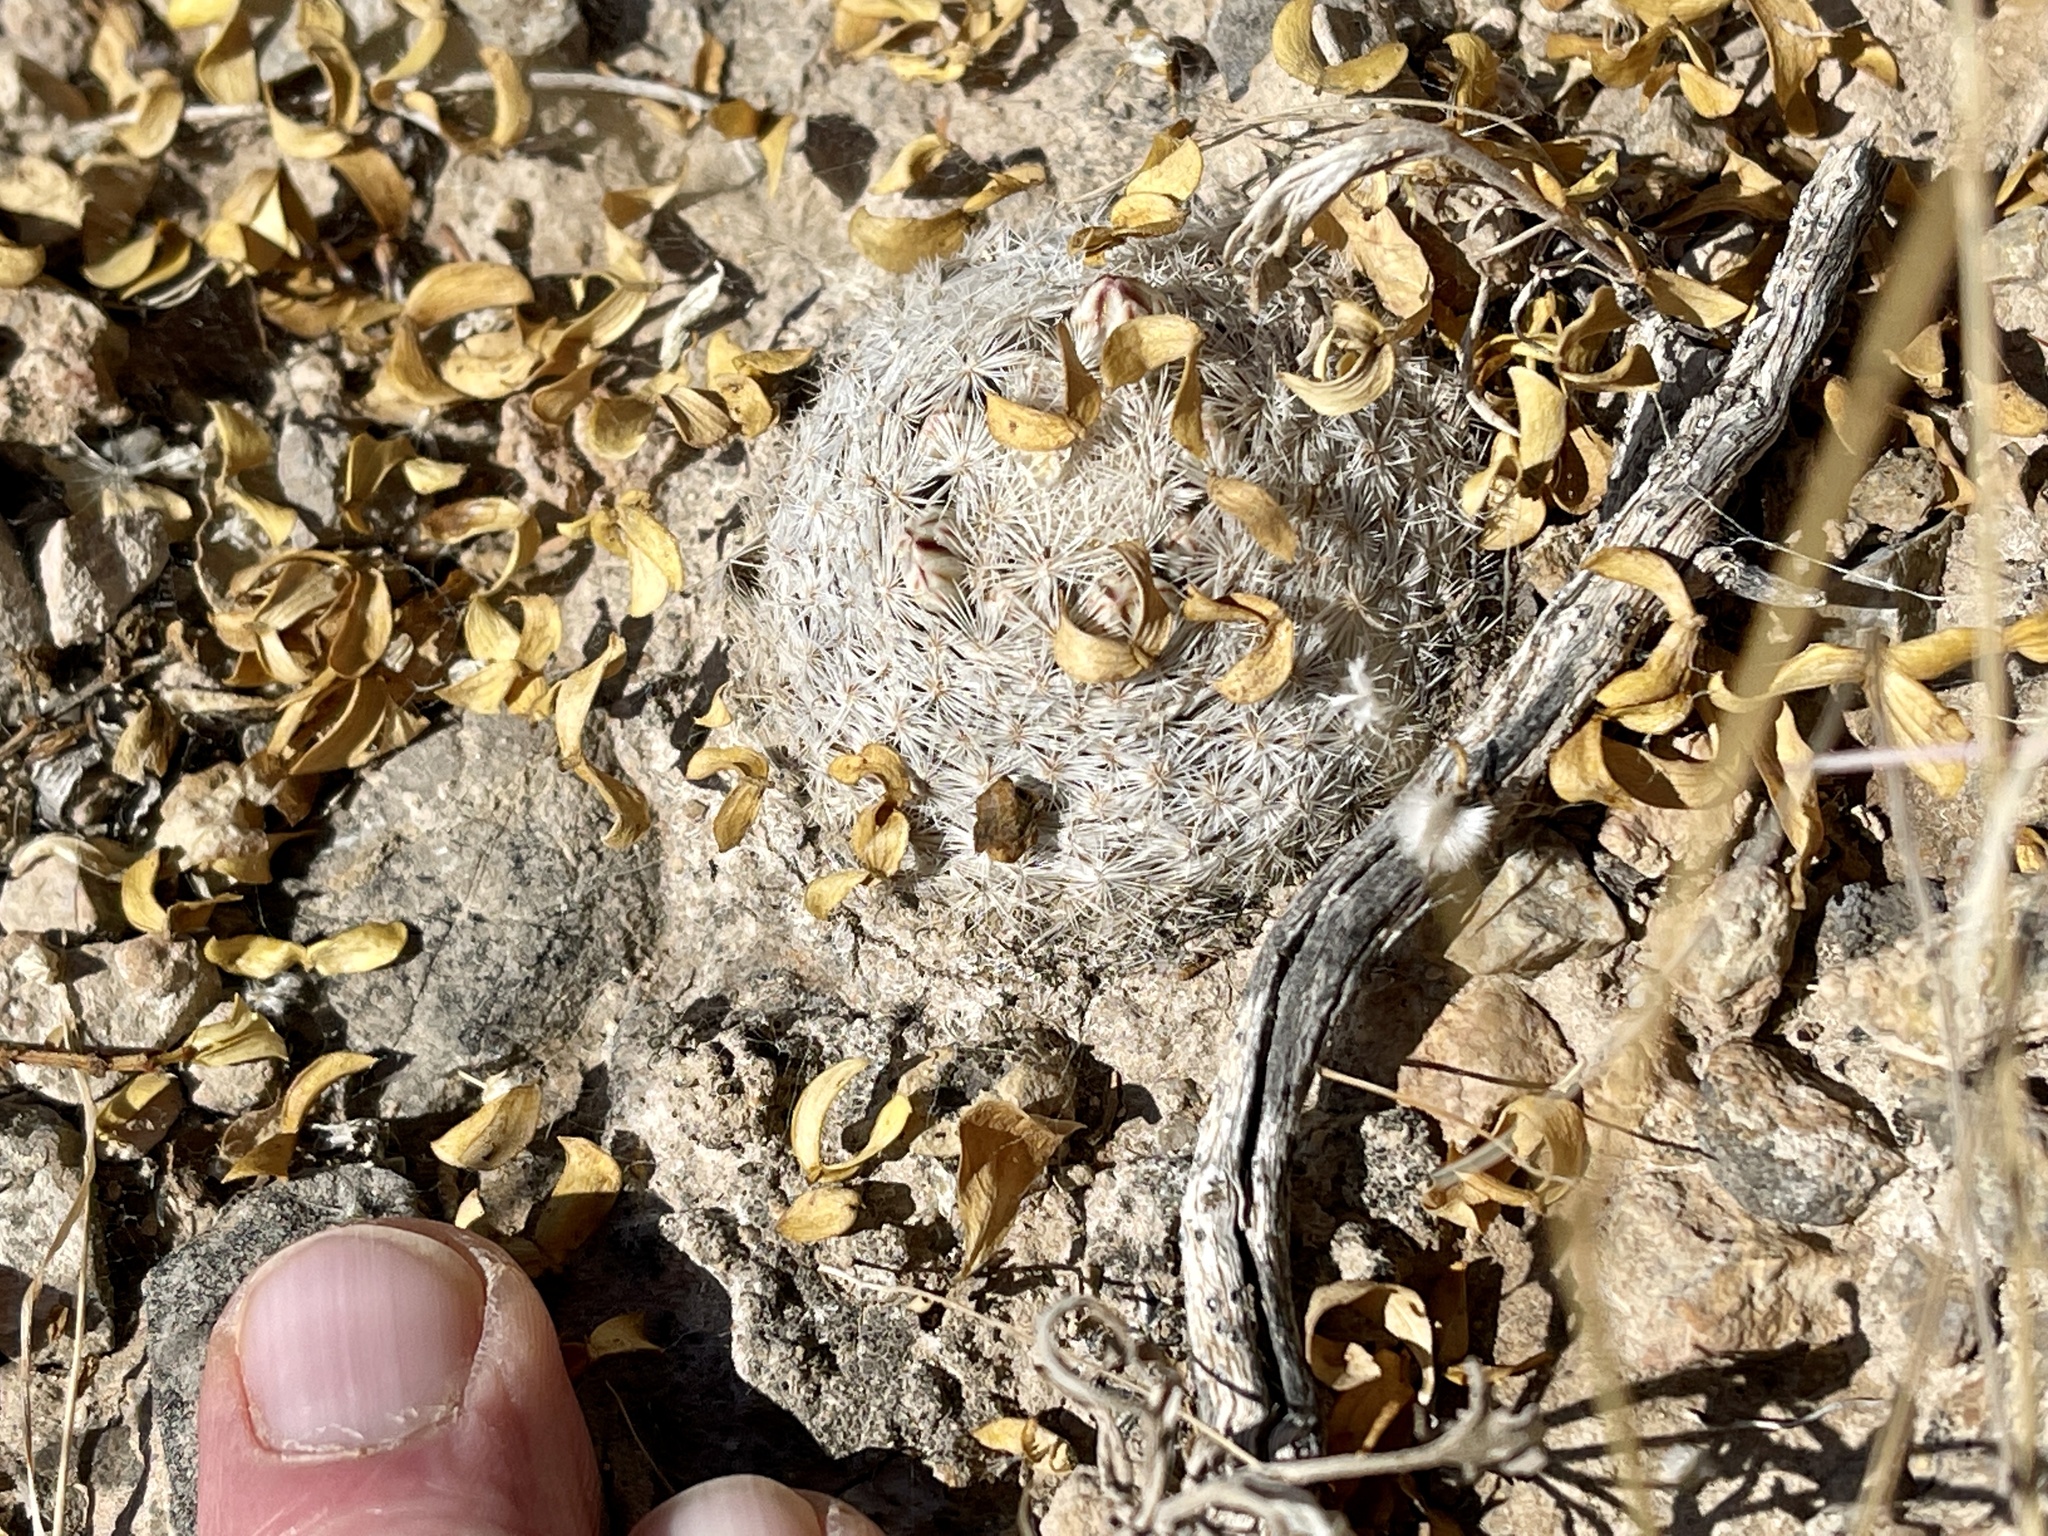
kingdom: Plantae
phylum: Tracheophyta
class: Magnoliopsida
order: Caryophyllales
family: Cactaceae
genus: Mammillaria
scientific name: Mammillaria lasiacantha
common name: Lace-spine nipple cactus
